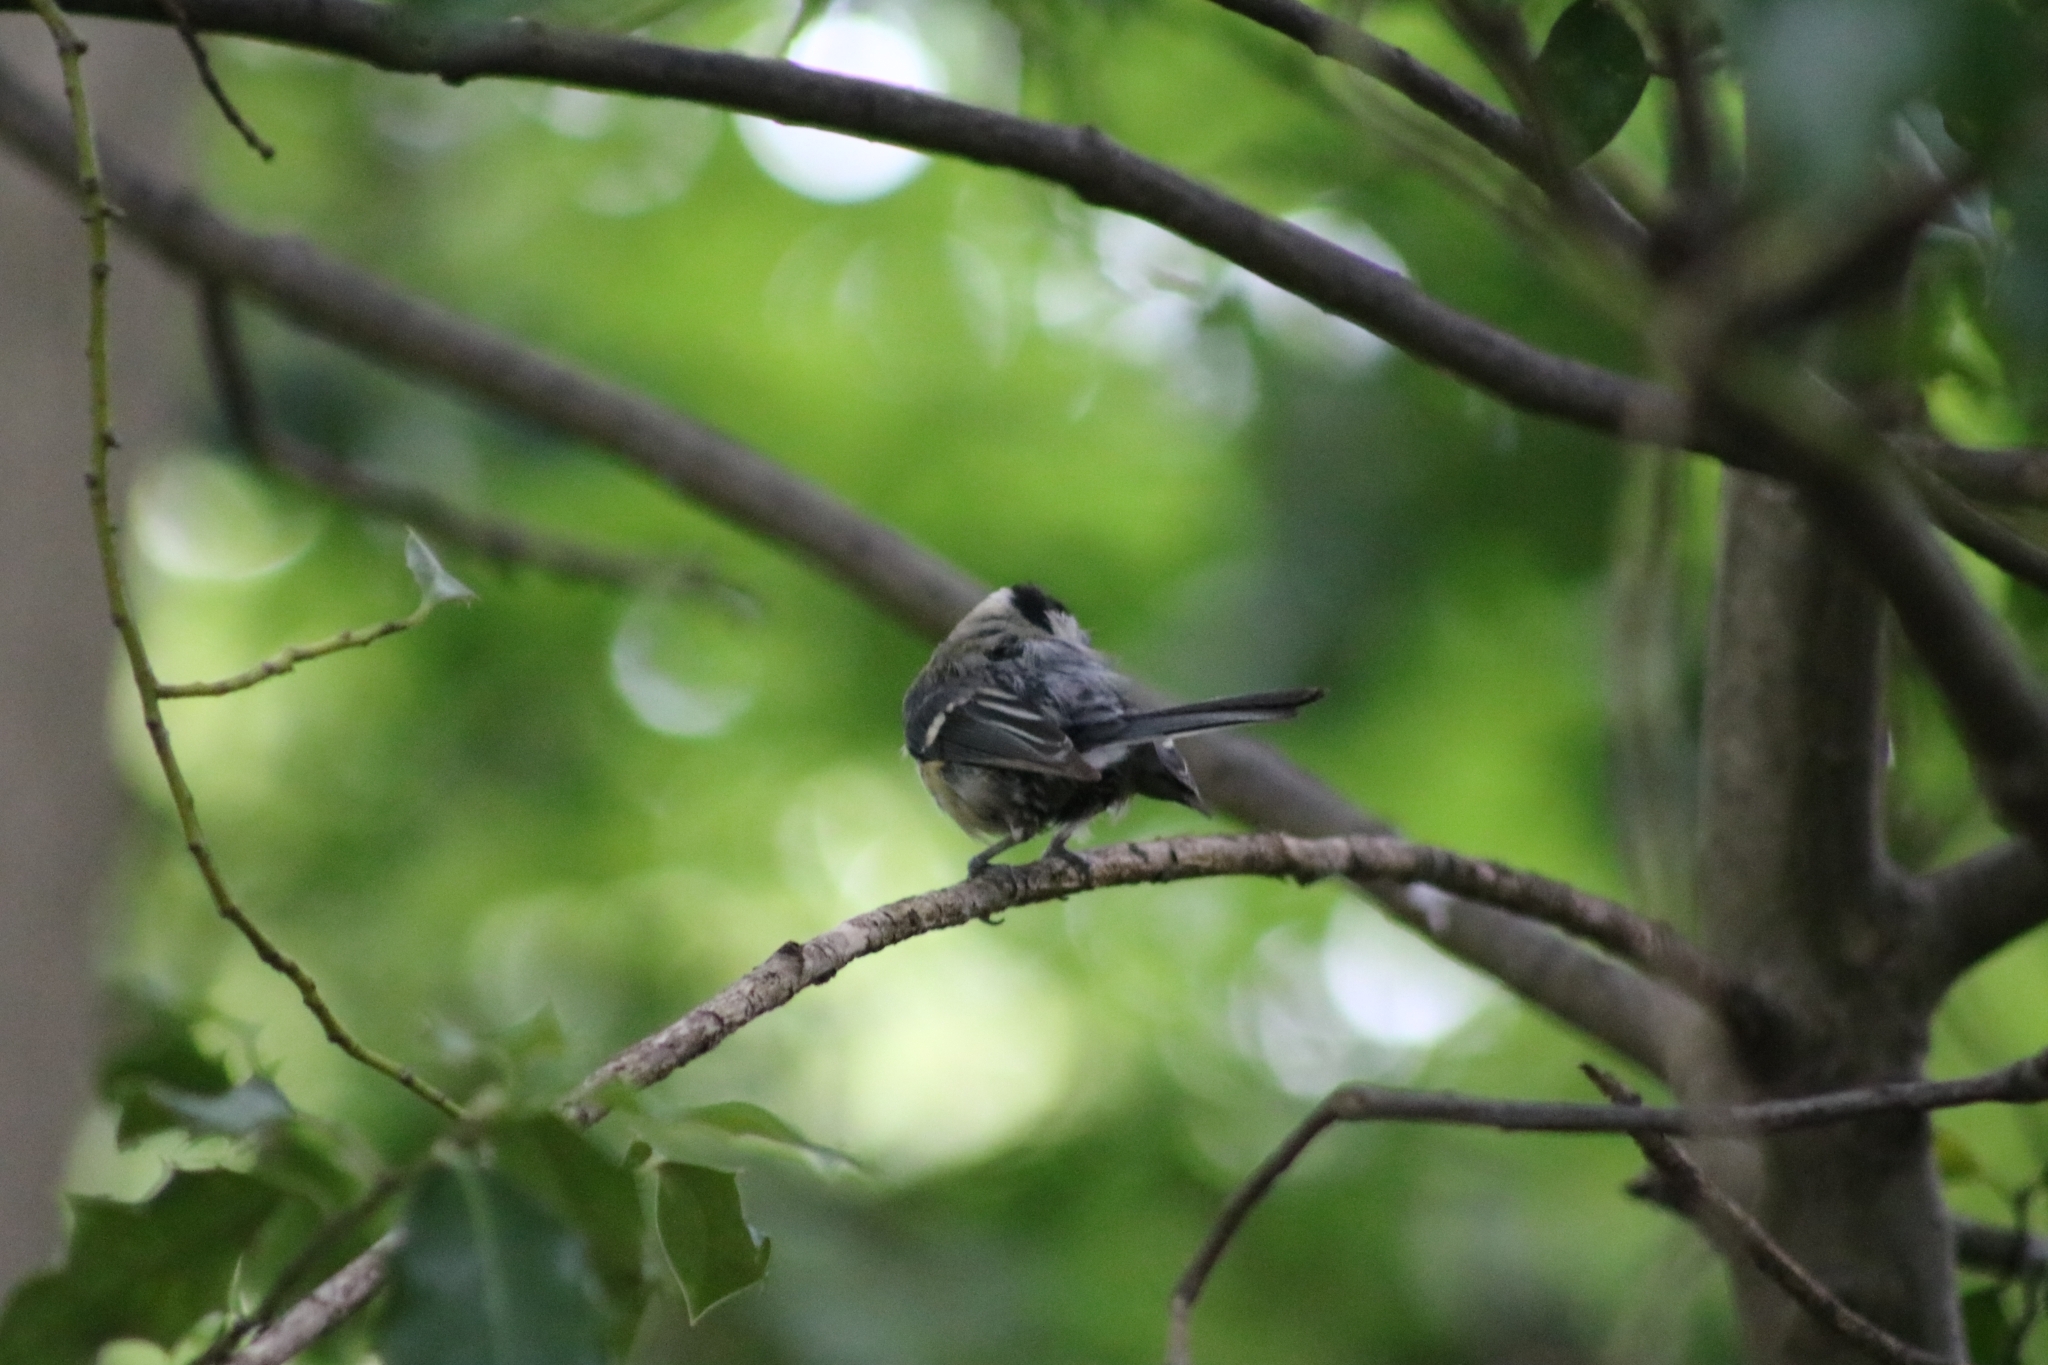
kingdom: Animalia
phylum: Chordata
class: Aves
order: Passeriformes
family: Paridae
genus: Parus
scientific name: Parus major
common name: Great tit
